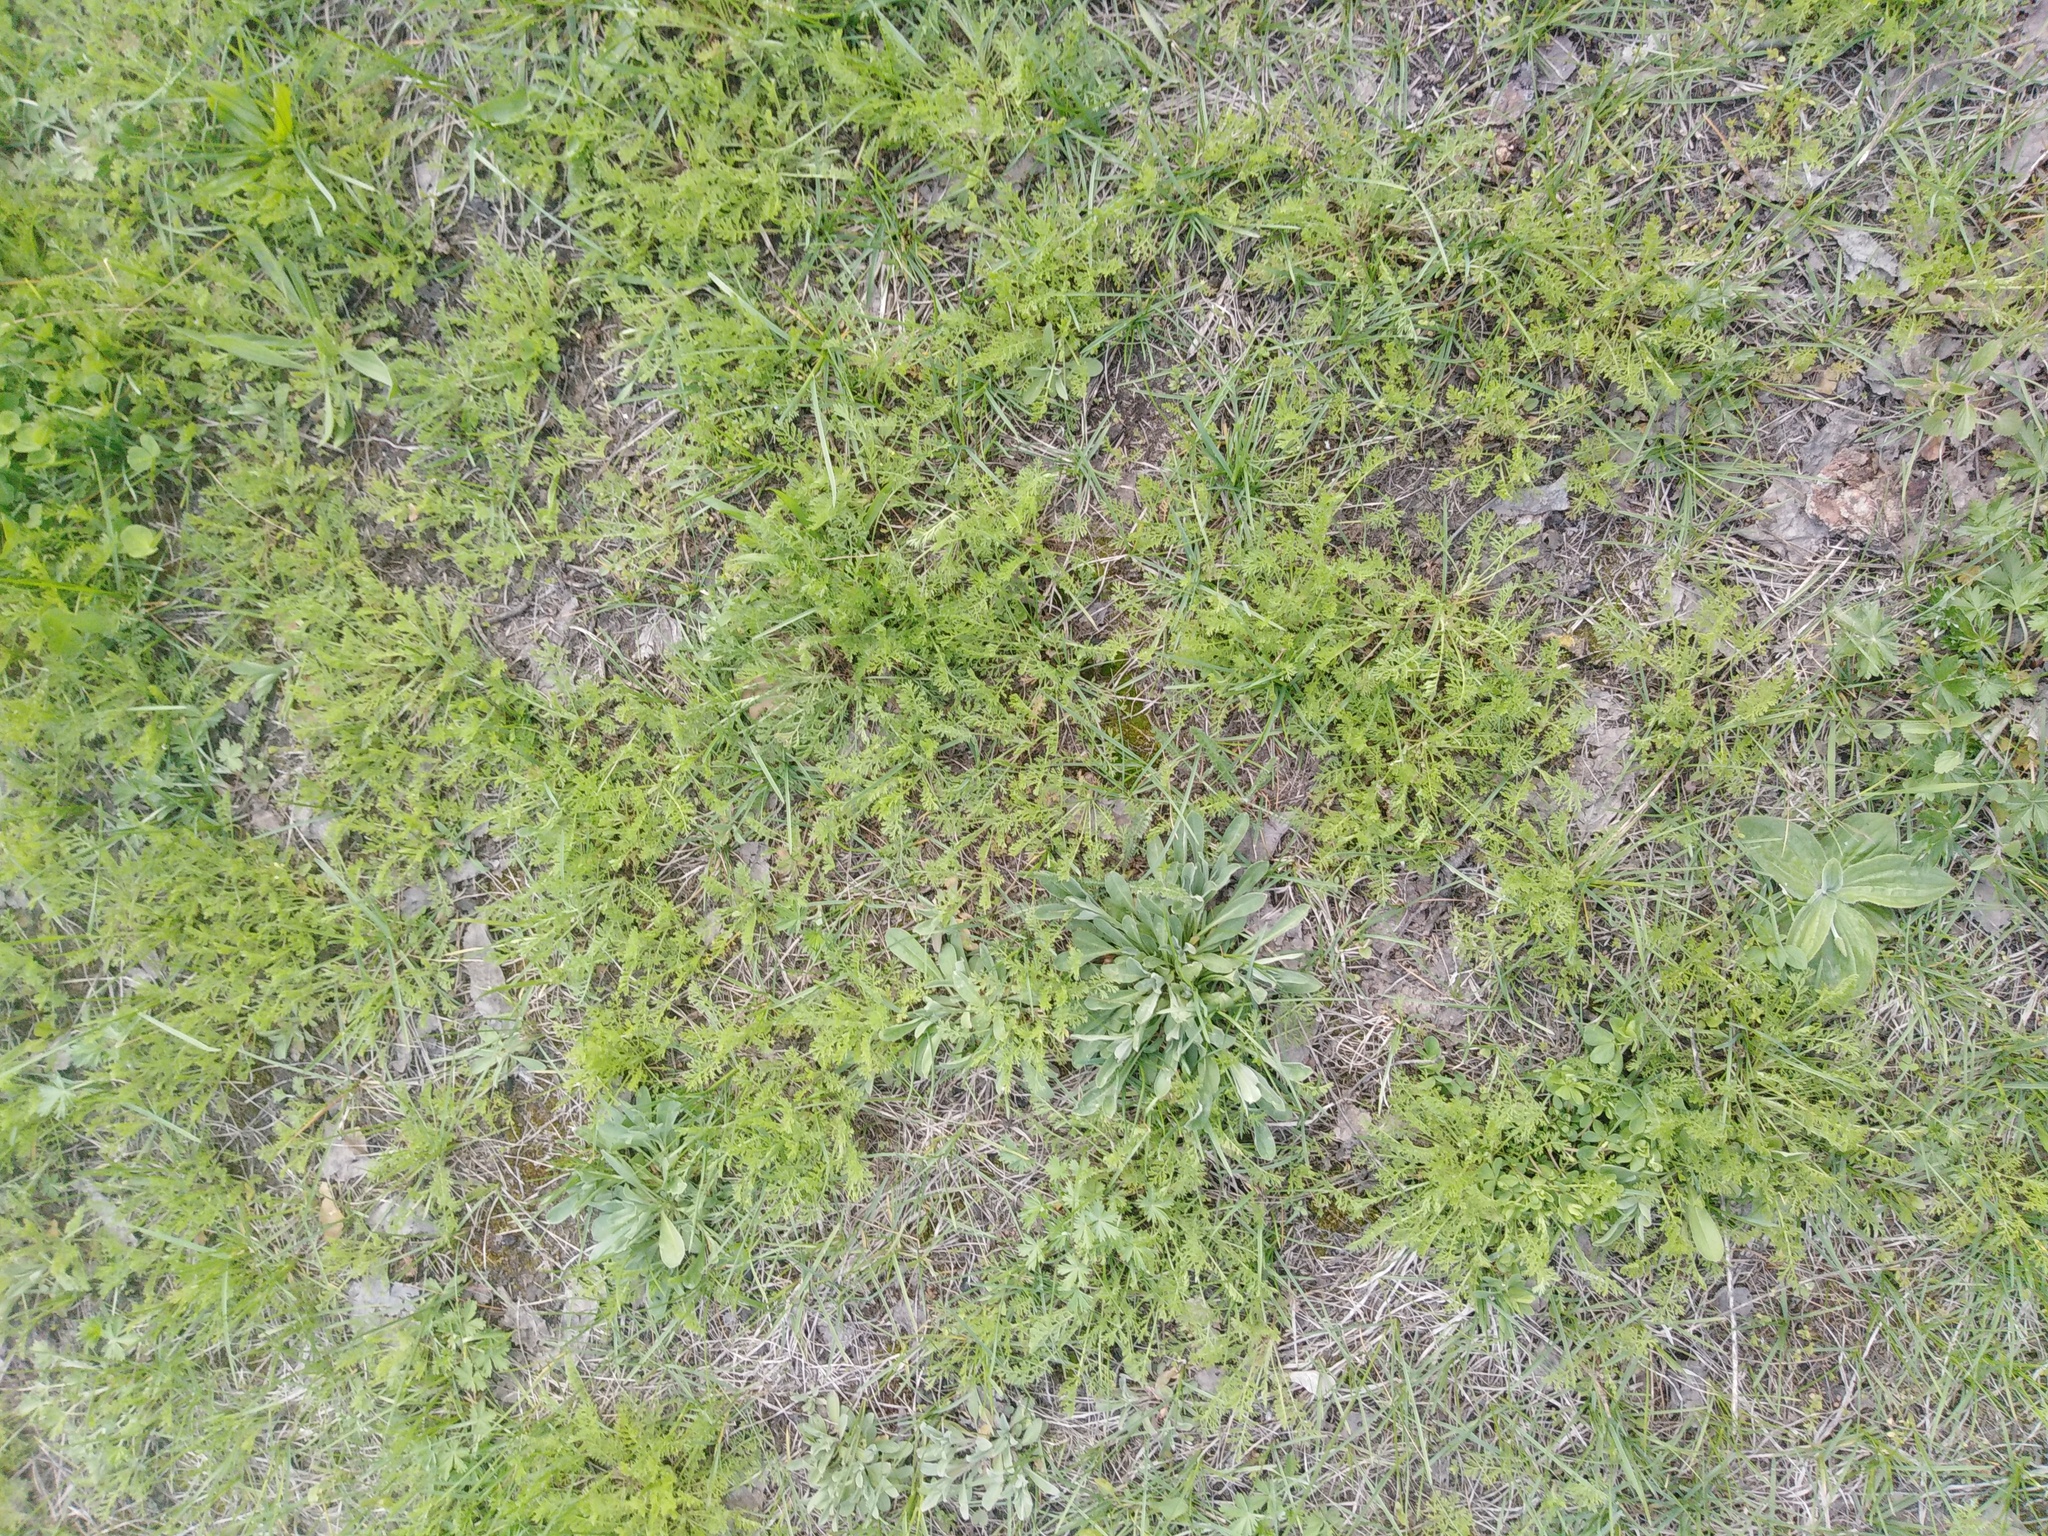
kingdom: Plantae
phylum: Tracheophyta
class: Magnoliopsida
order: Asterales
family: Asteraceae
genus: Achillea
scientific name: Achillea nobilis
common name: Noble yarrow
